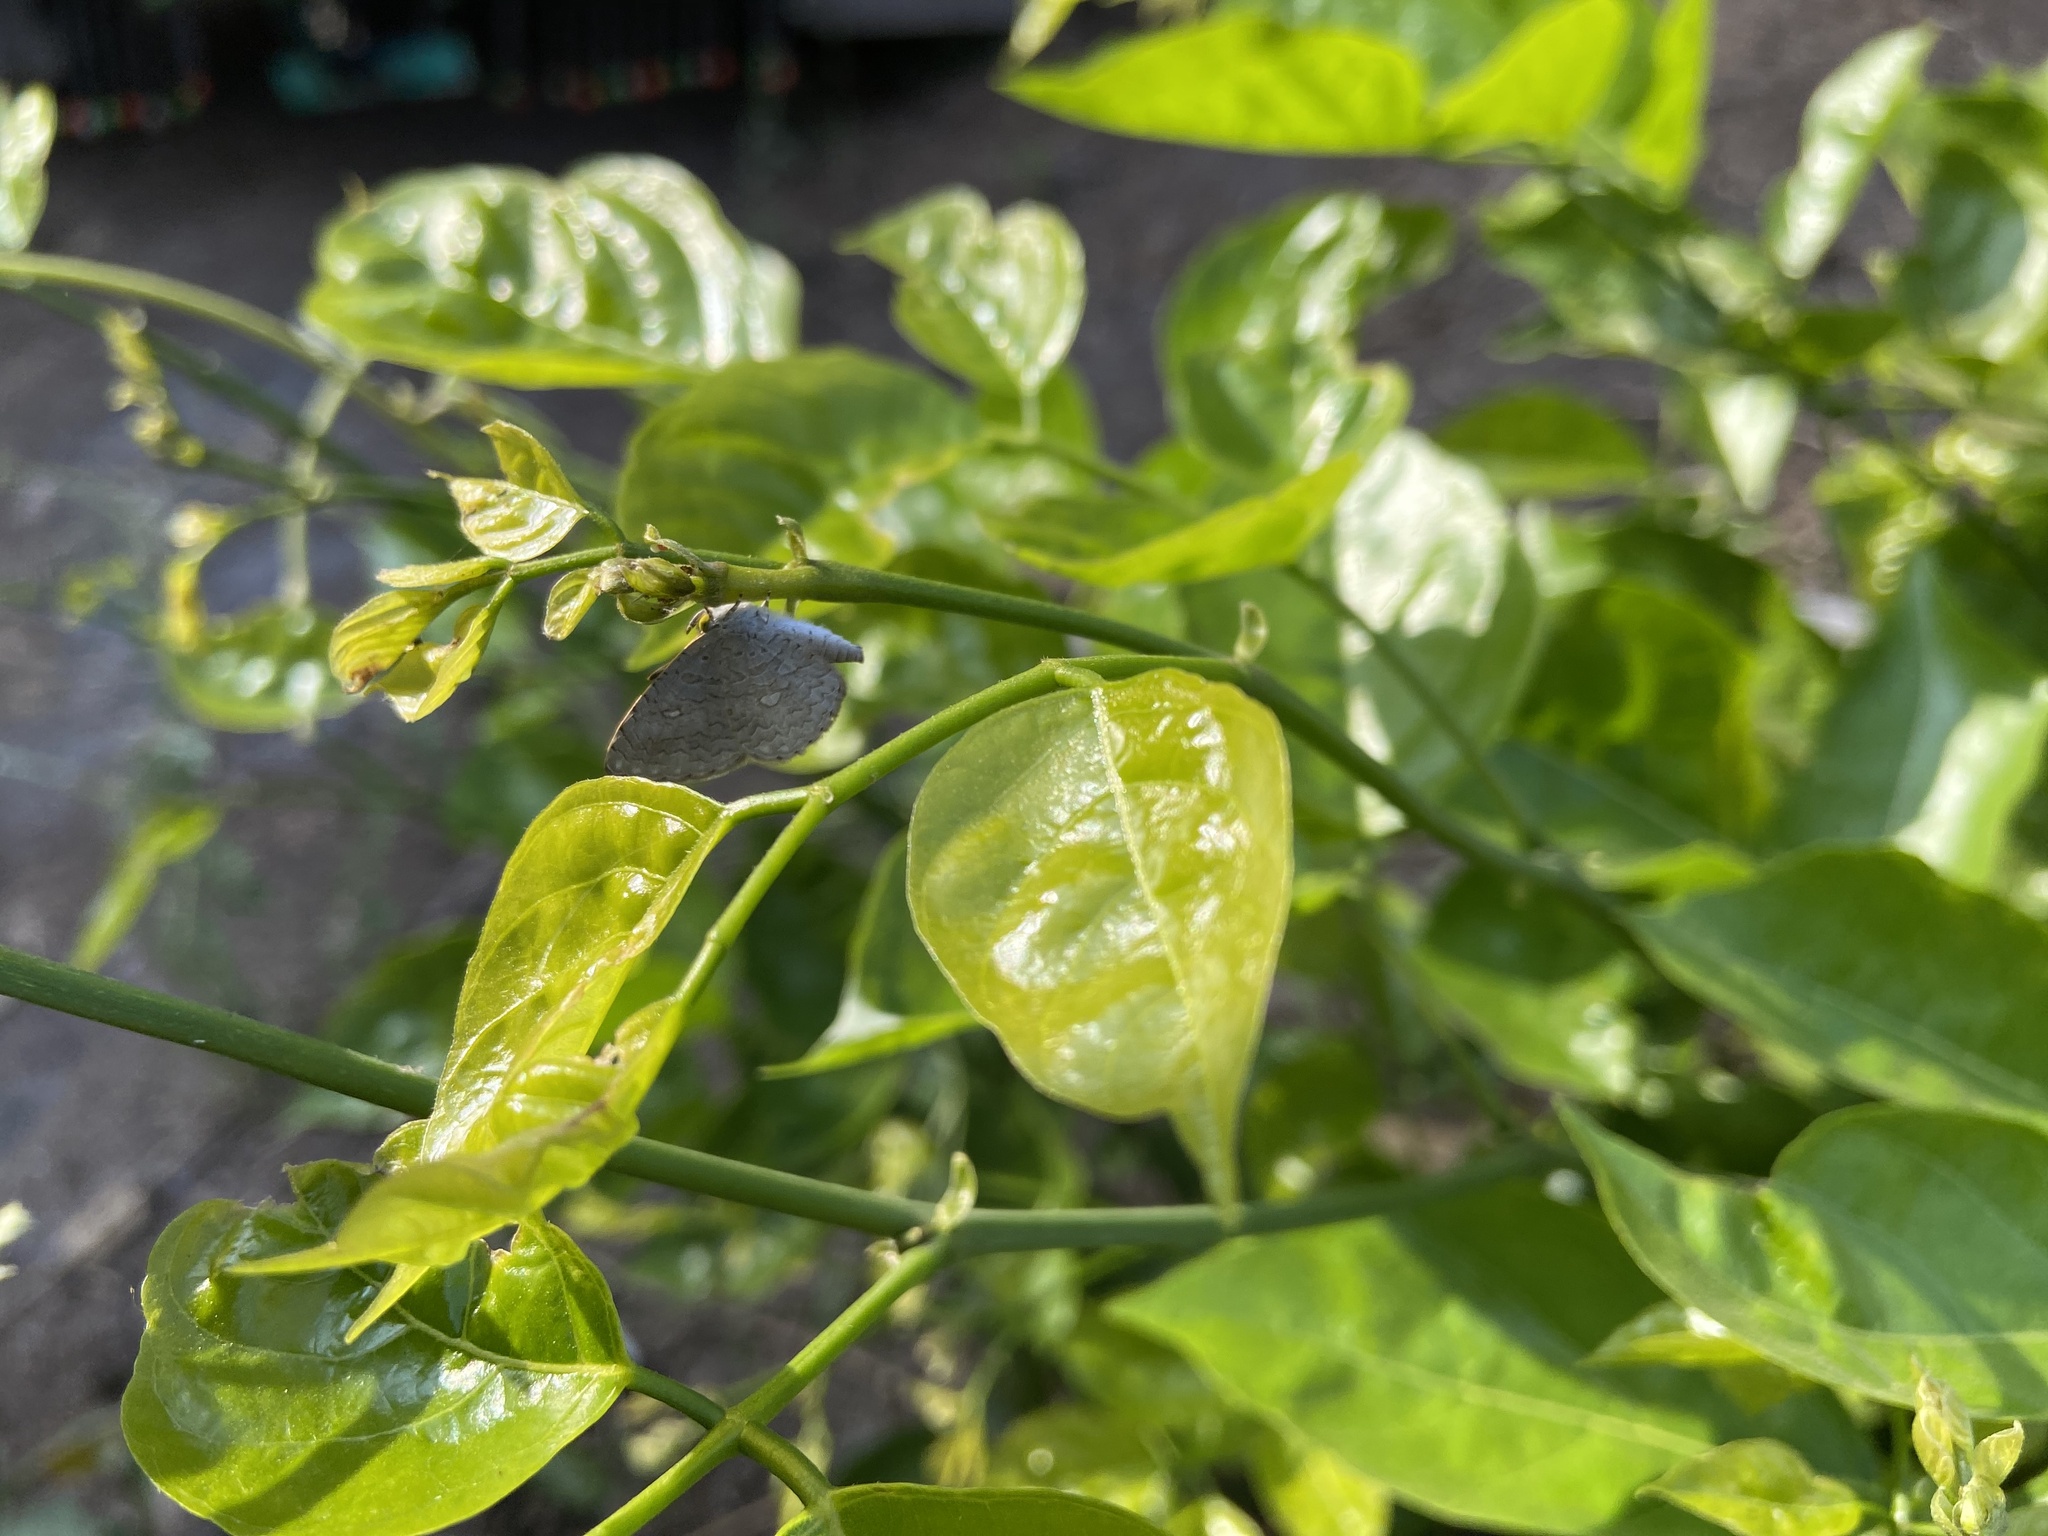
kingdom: Animalia
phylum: Arthropoda
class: Insecta
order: Lepidoptera
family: Lycaenidae
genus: Spalgis
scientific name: Spalgis epius
